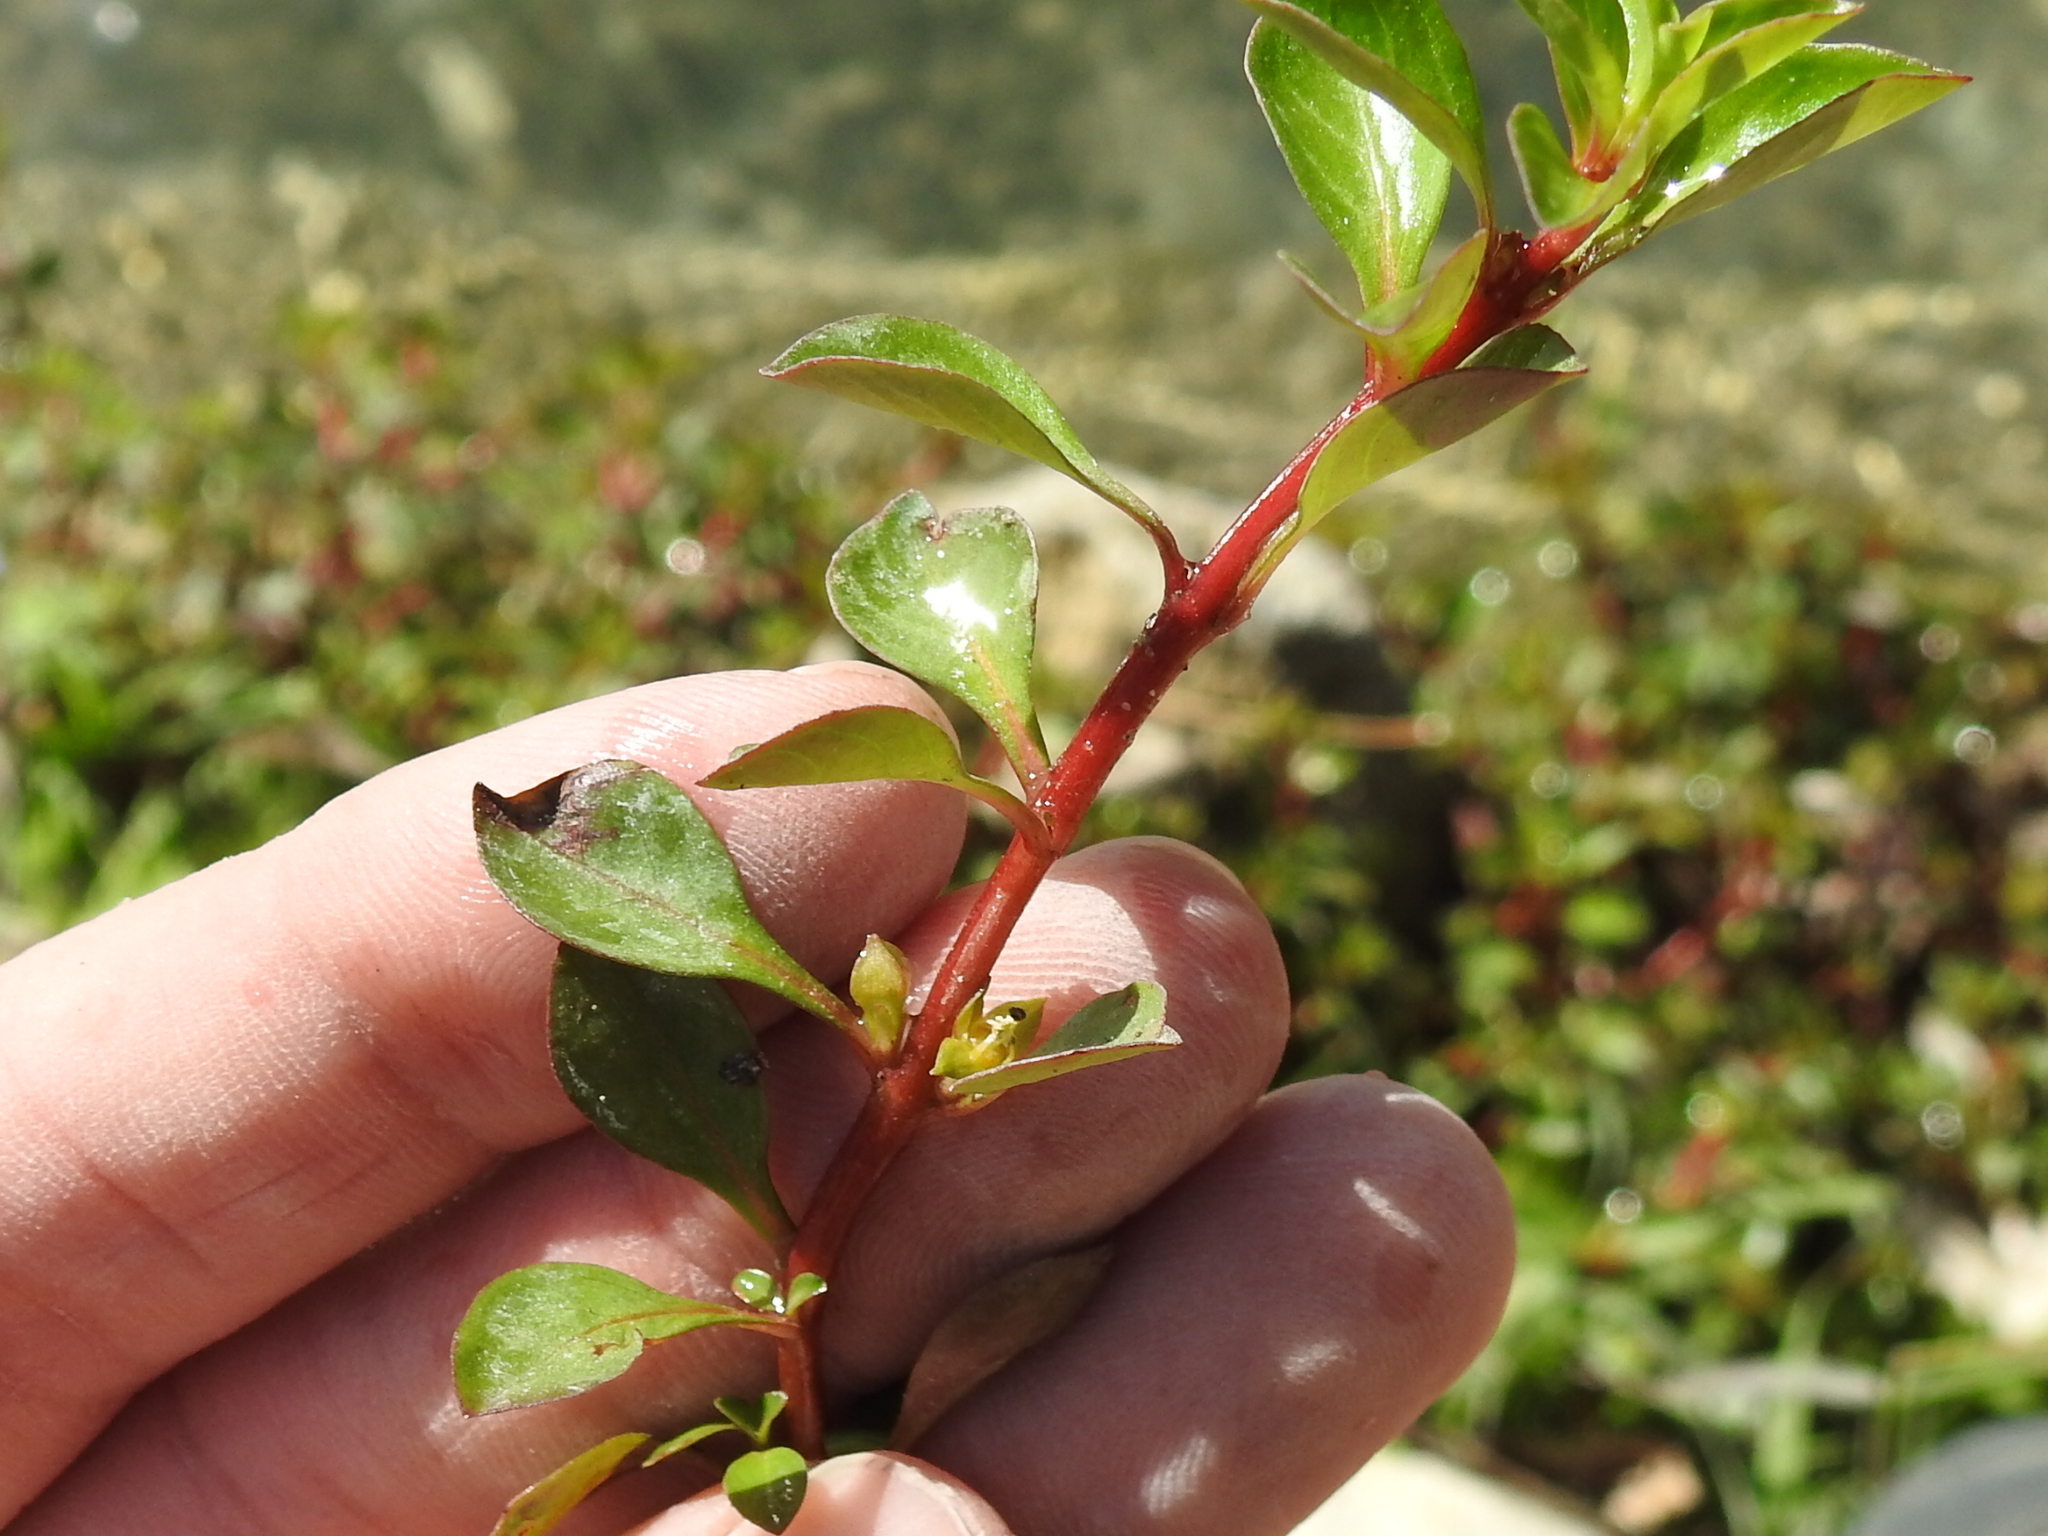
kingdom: Plantae
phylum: Tracheophyta
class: Magnoliopsida
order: Myrtales
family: Onagraceae
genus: Ludwigia
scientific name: Ludwigia repens
